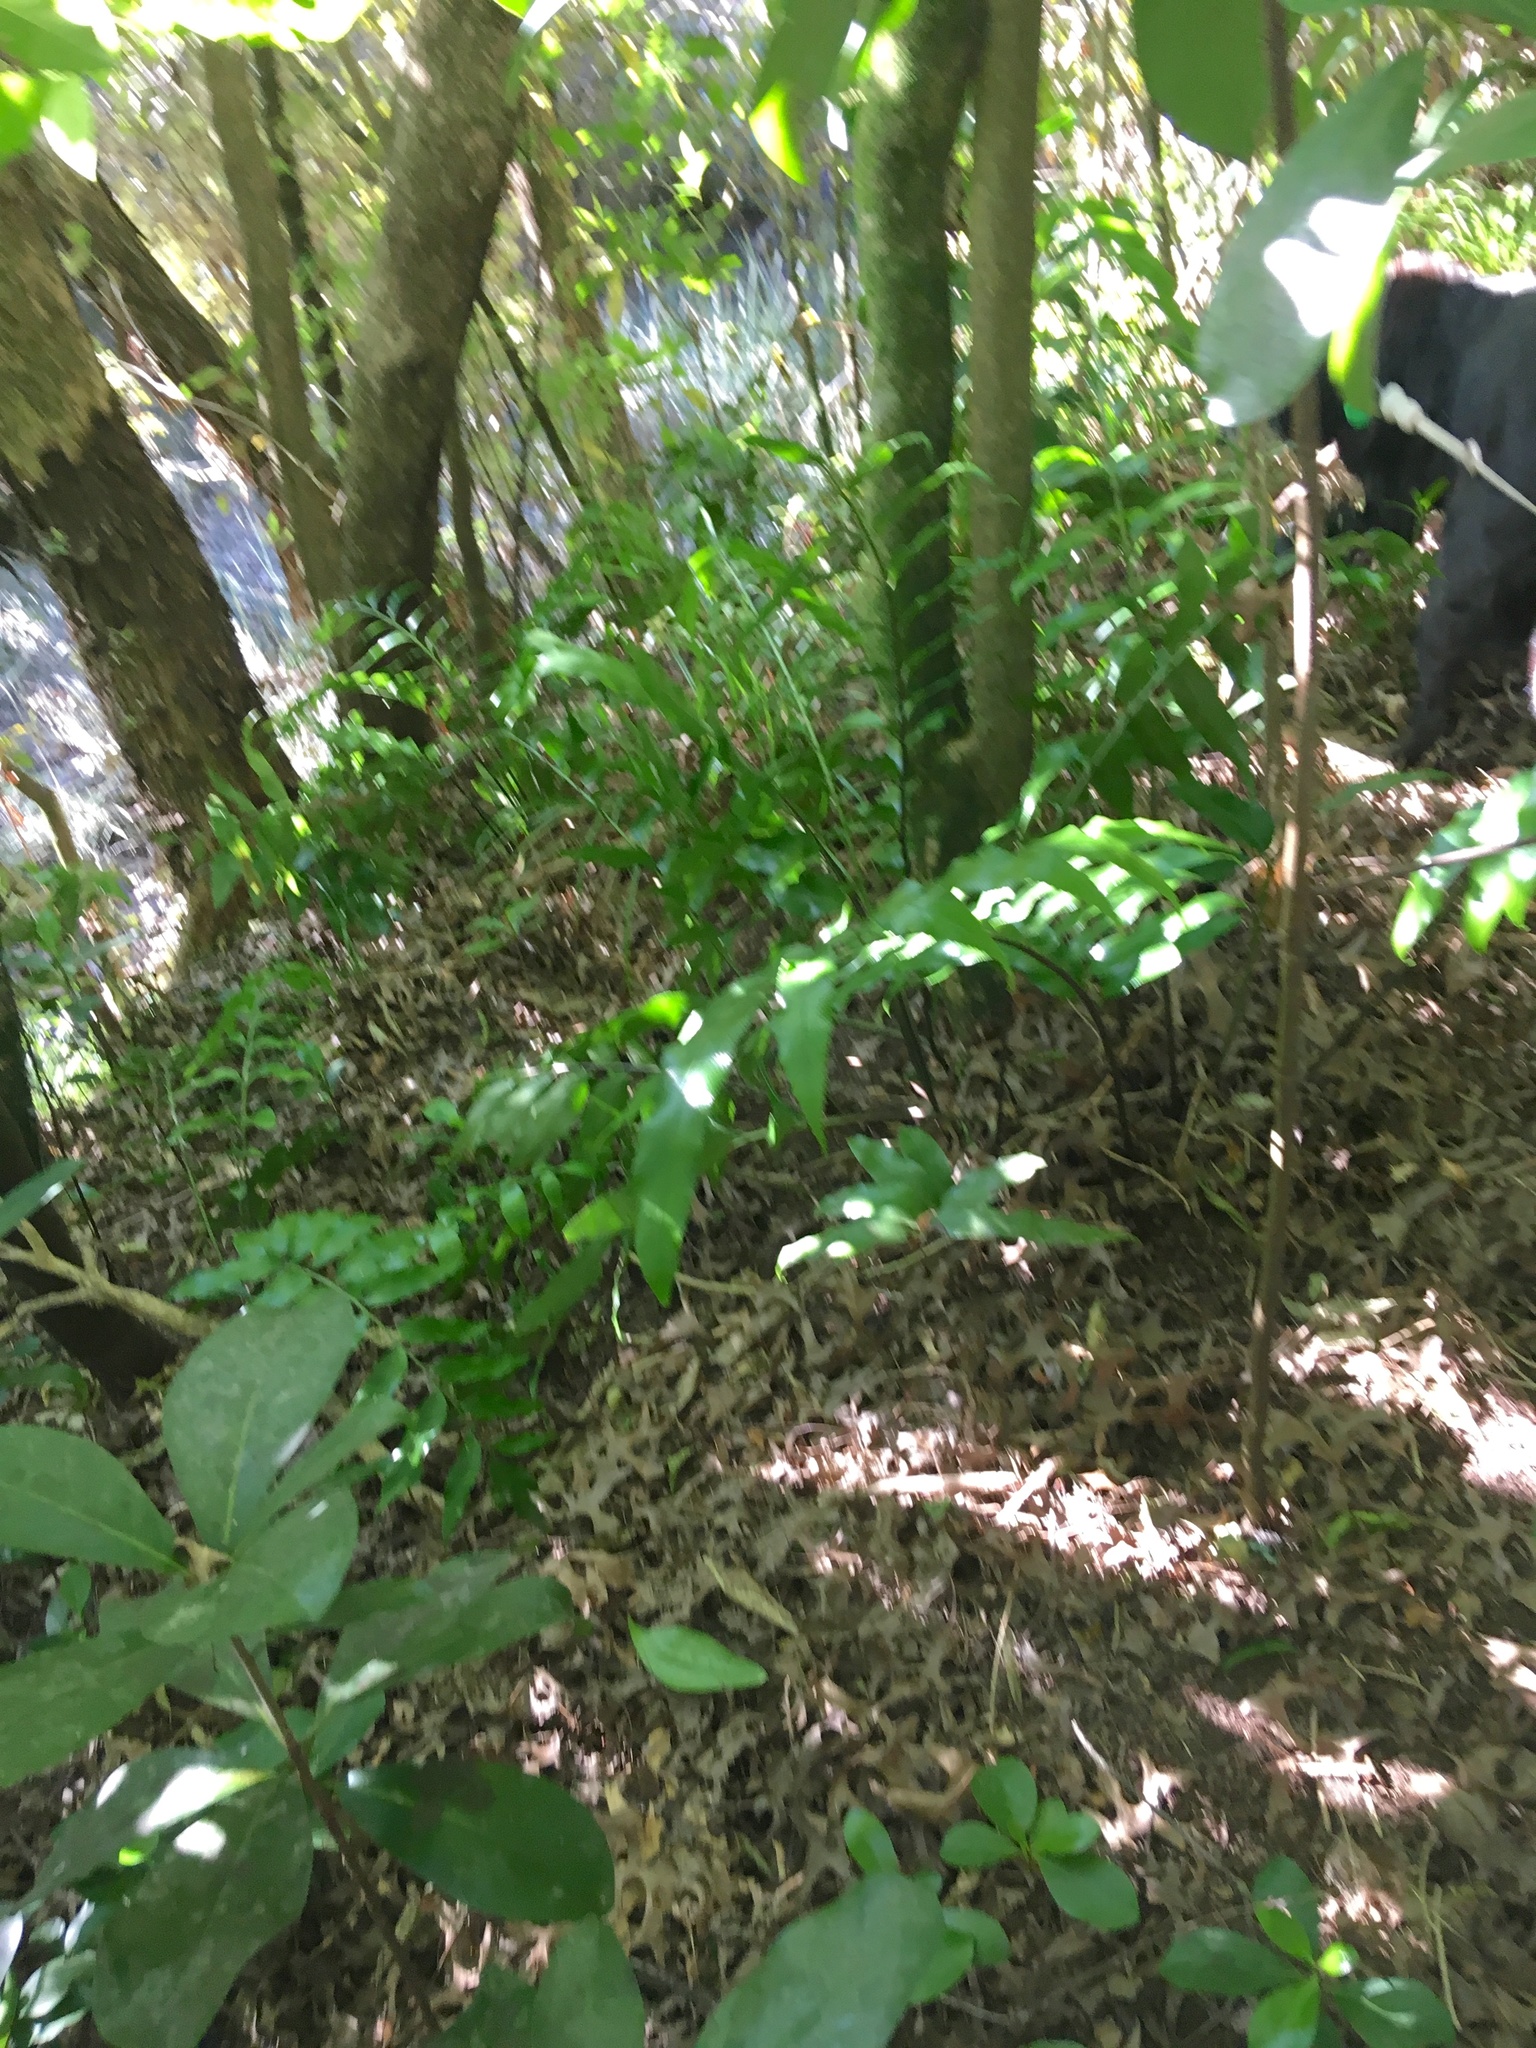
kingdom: Plantae
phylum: Tracheophyta
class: Magnoliopsida
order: Cucurbitales
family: Corynocarpaceae
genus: Corynocarpus
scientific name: Corynocarpus laevigatus
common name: New zealand laurel
